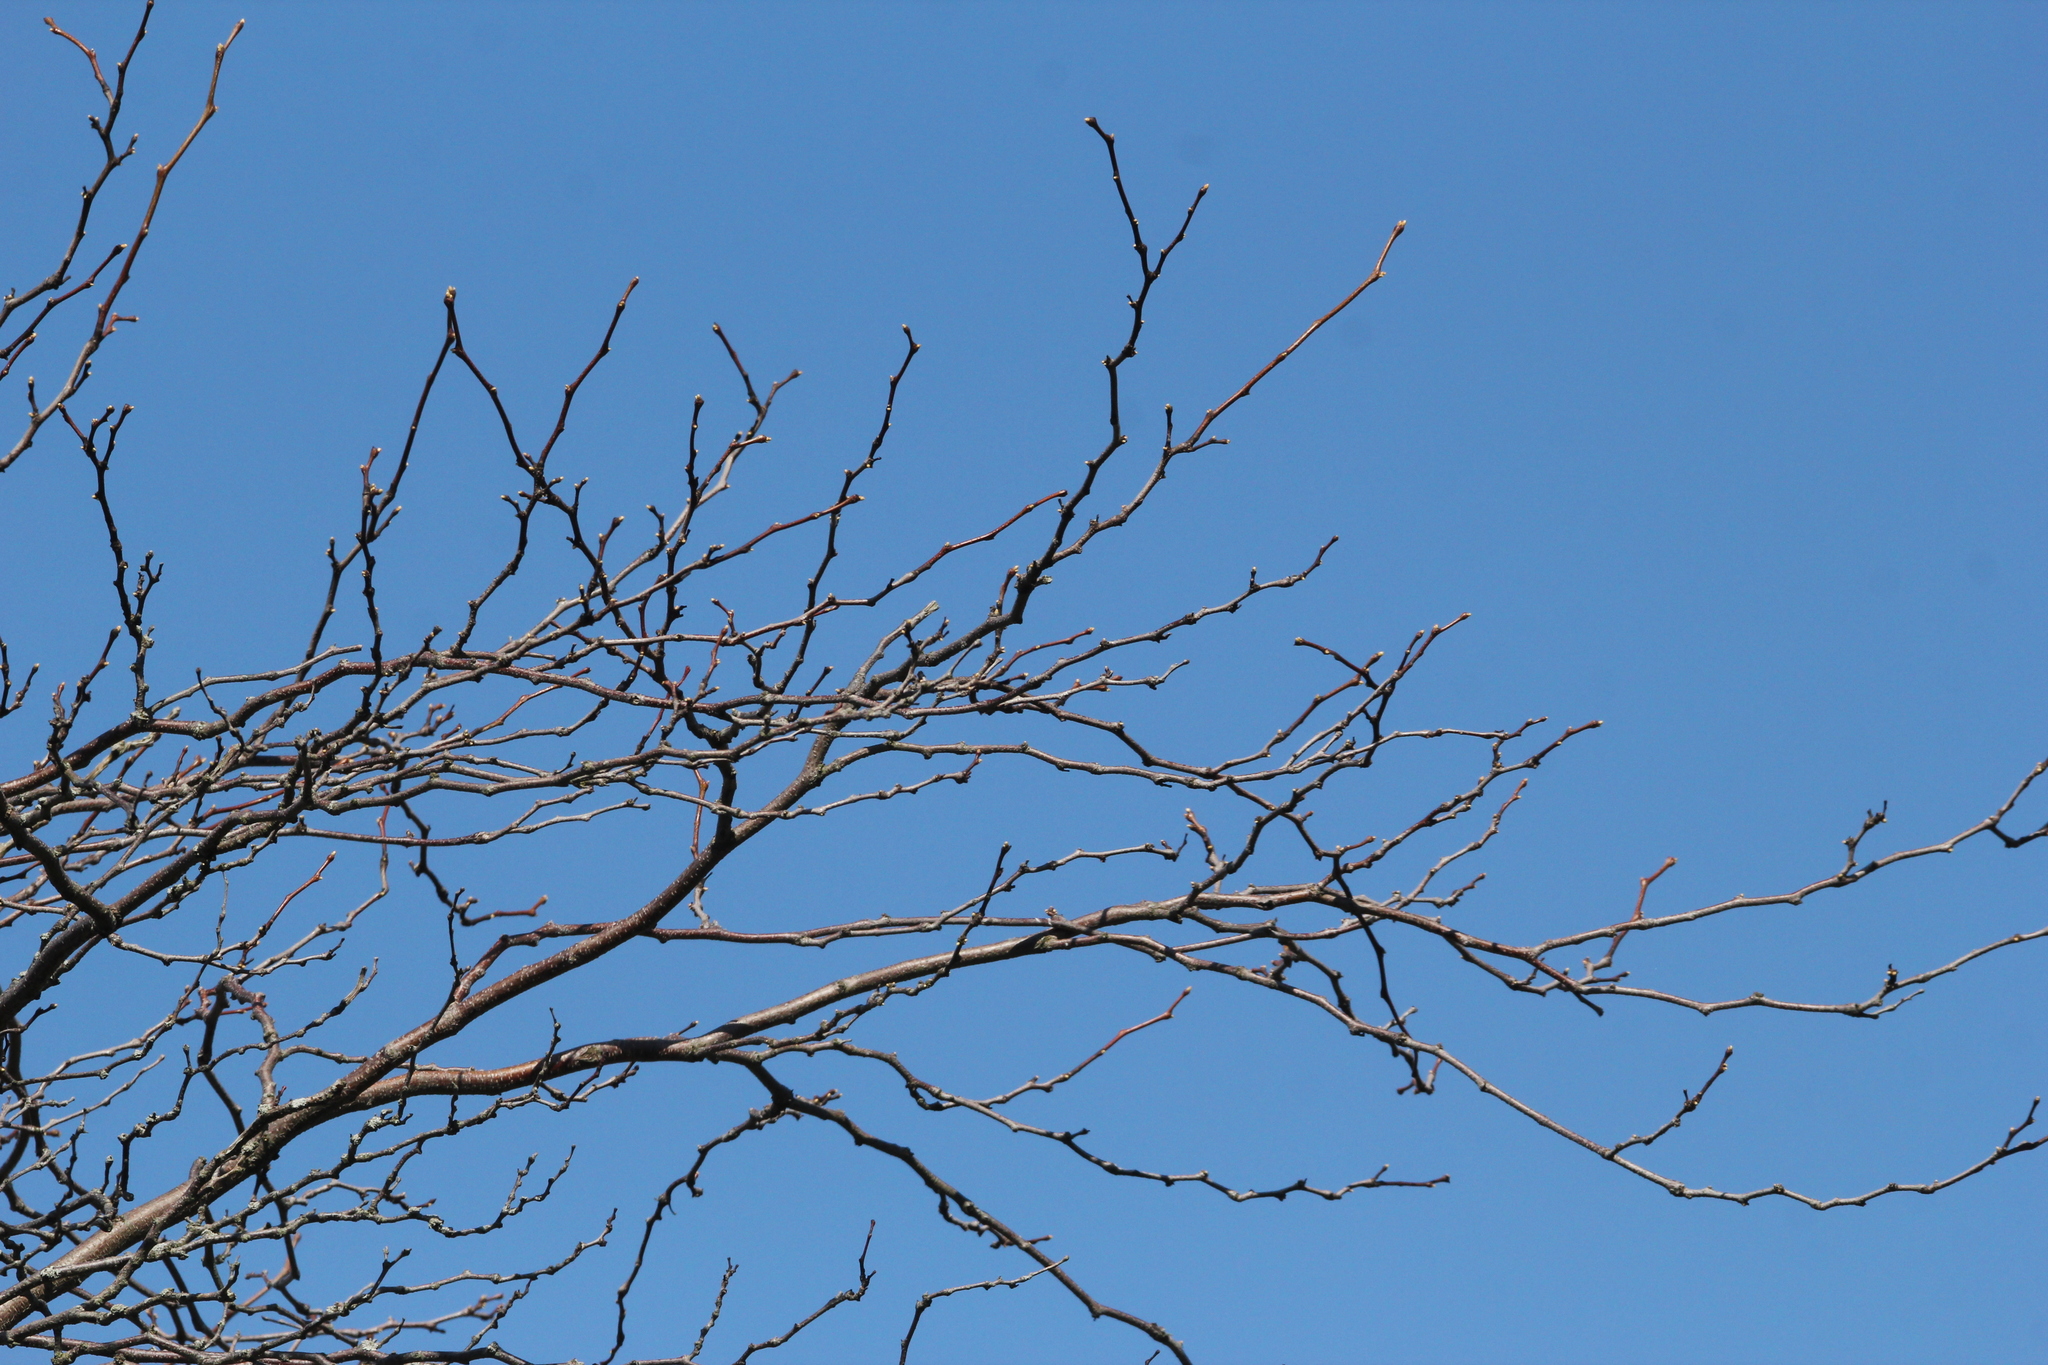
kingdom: Plantae
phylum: Tracheophyta
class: Magnoliopsida
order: Fabales
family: Fabaceae
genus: Gleditsia
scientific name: Gleditsia triacanthos
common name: Common honeylocust
